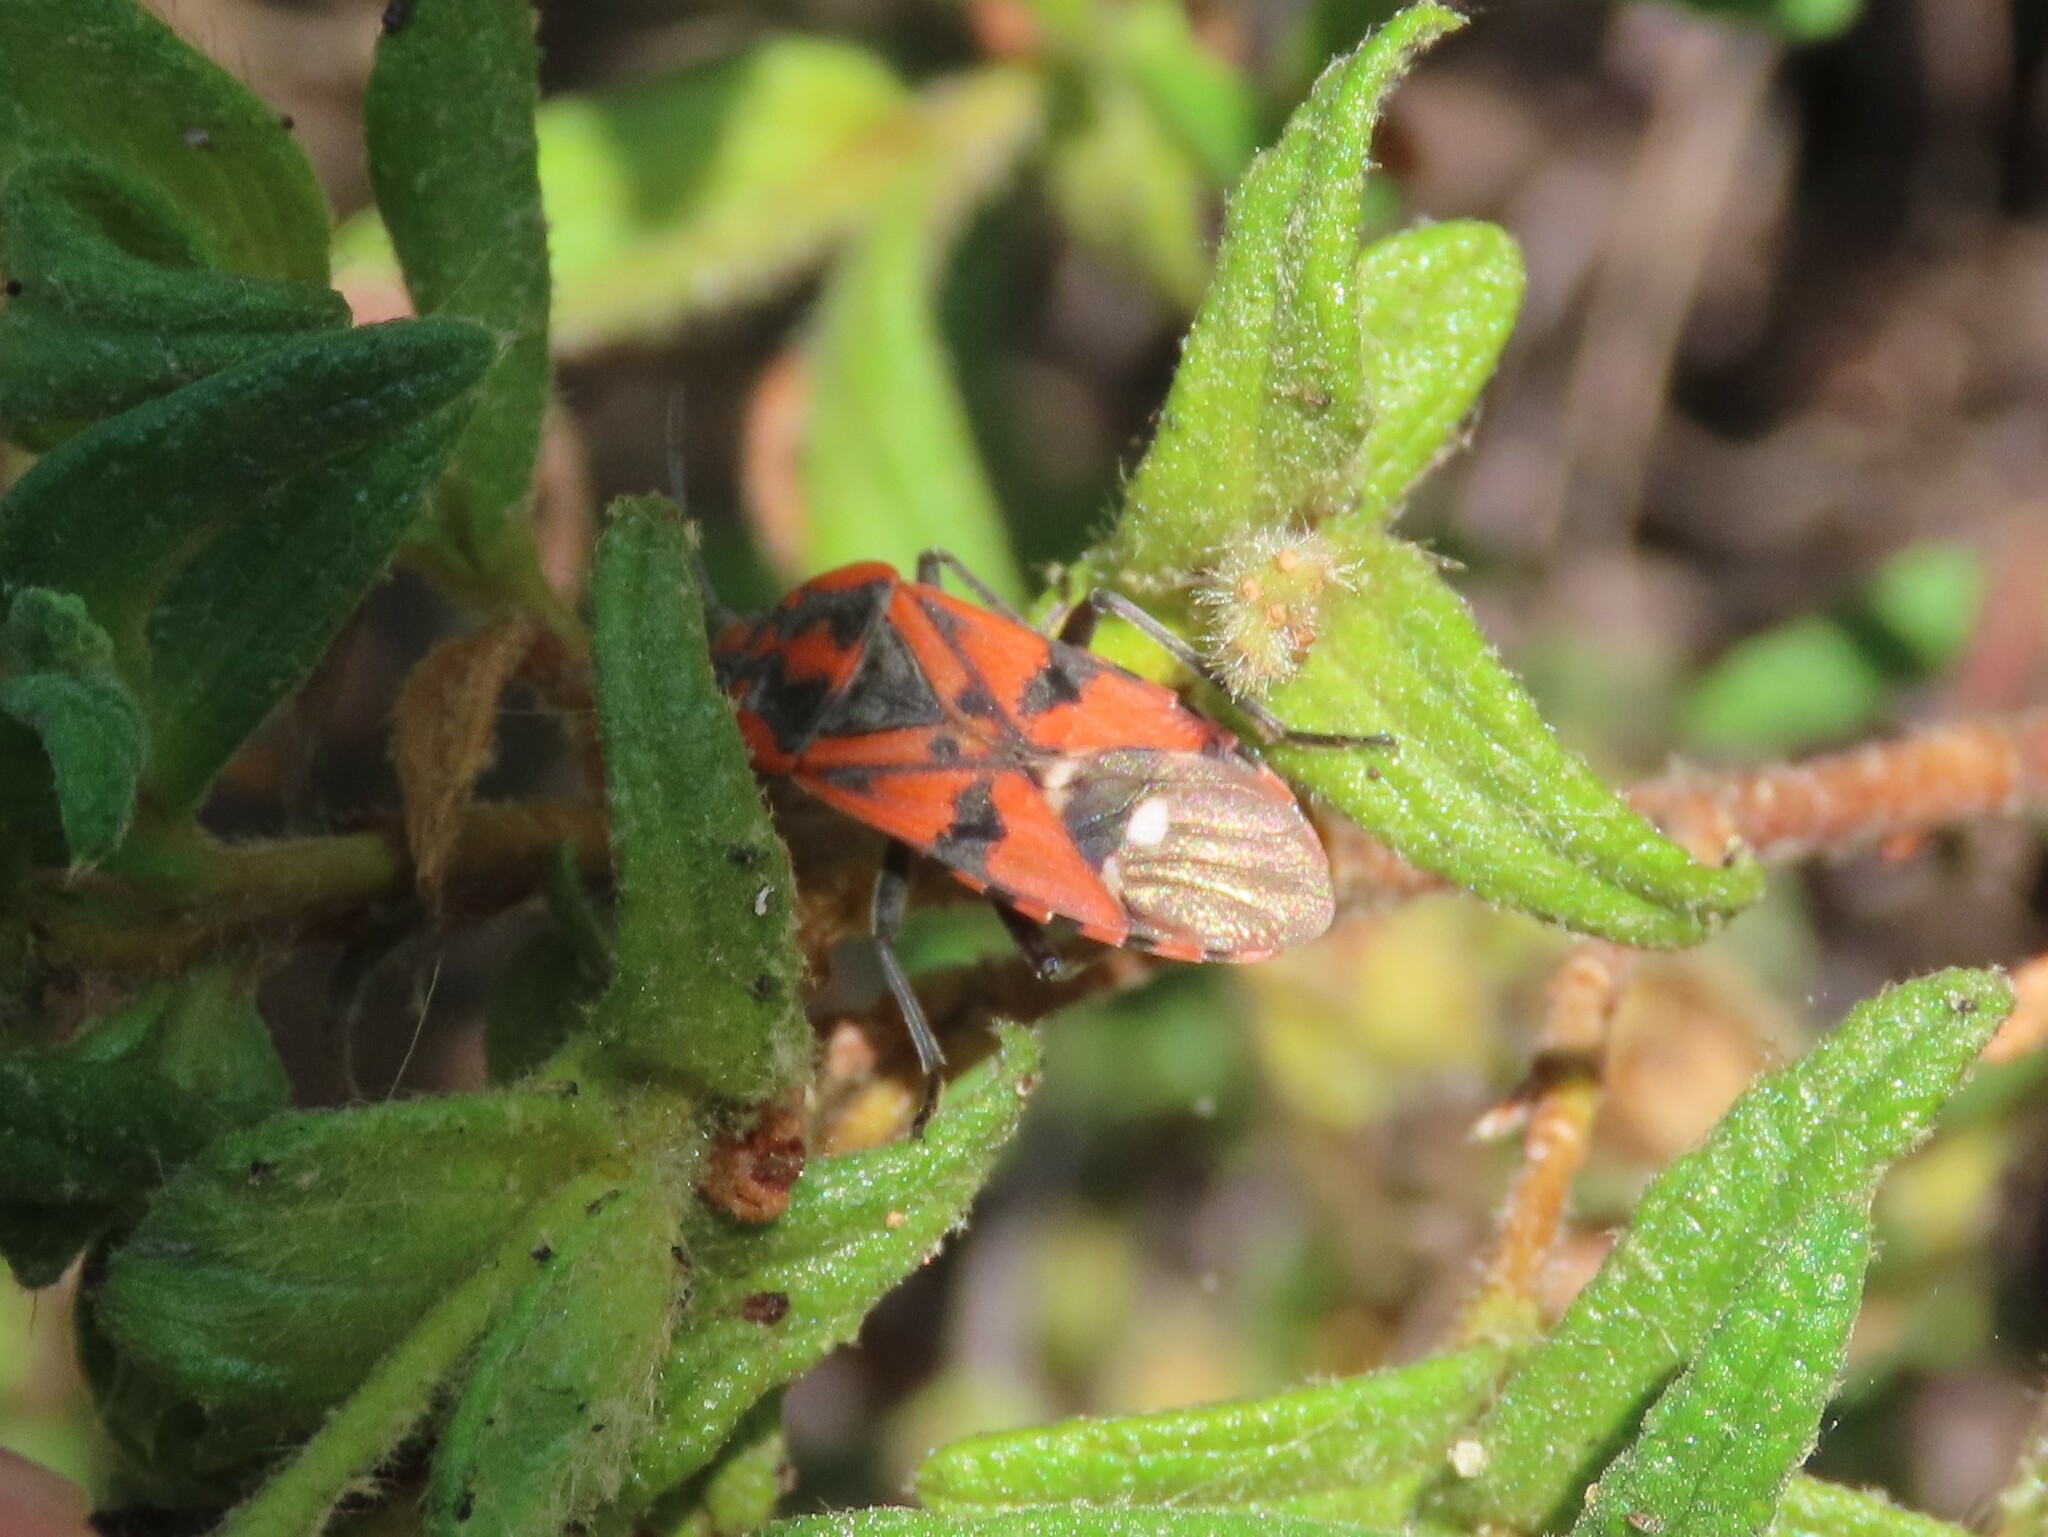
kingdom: Animalia
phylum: Arthropoda
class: Insecta
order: Hemiptera
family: Lygaeidae
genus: Spilostethus
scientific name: Spilostethus pandurus
